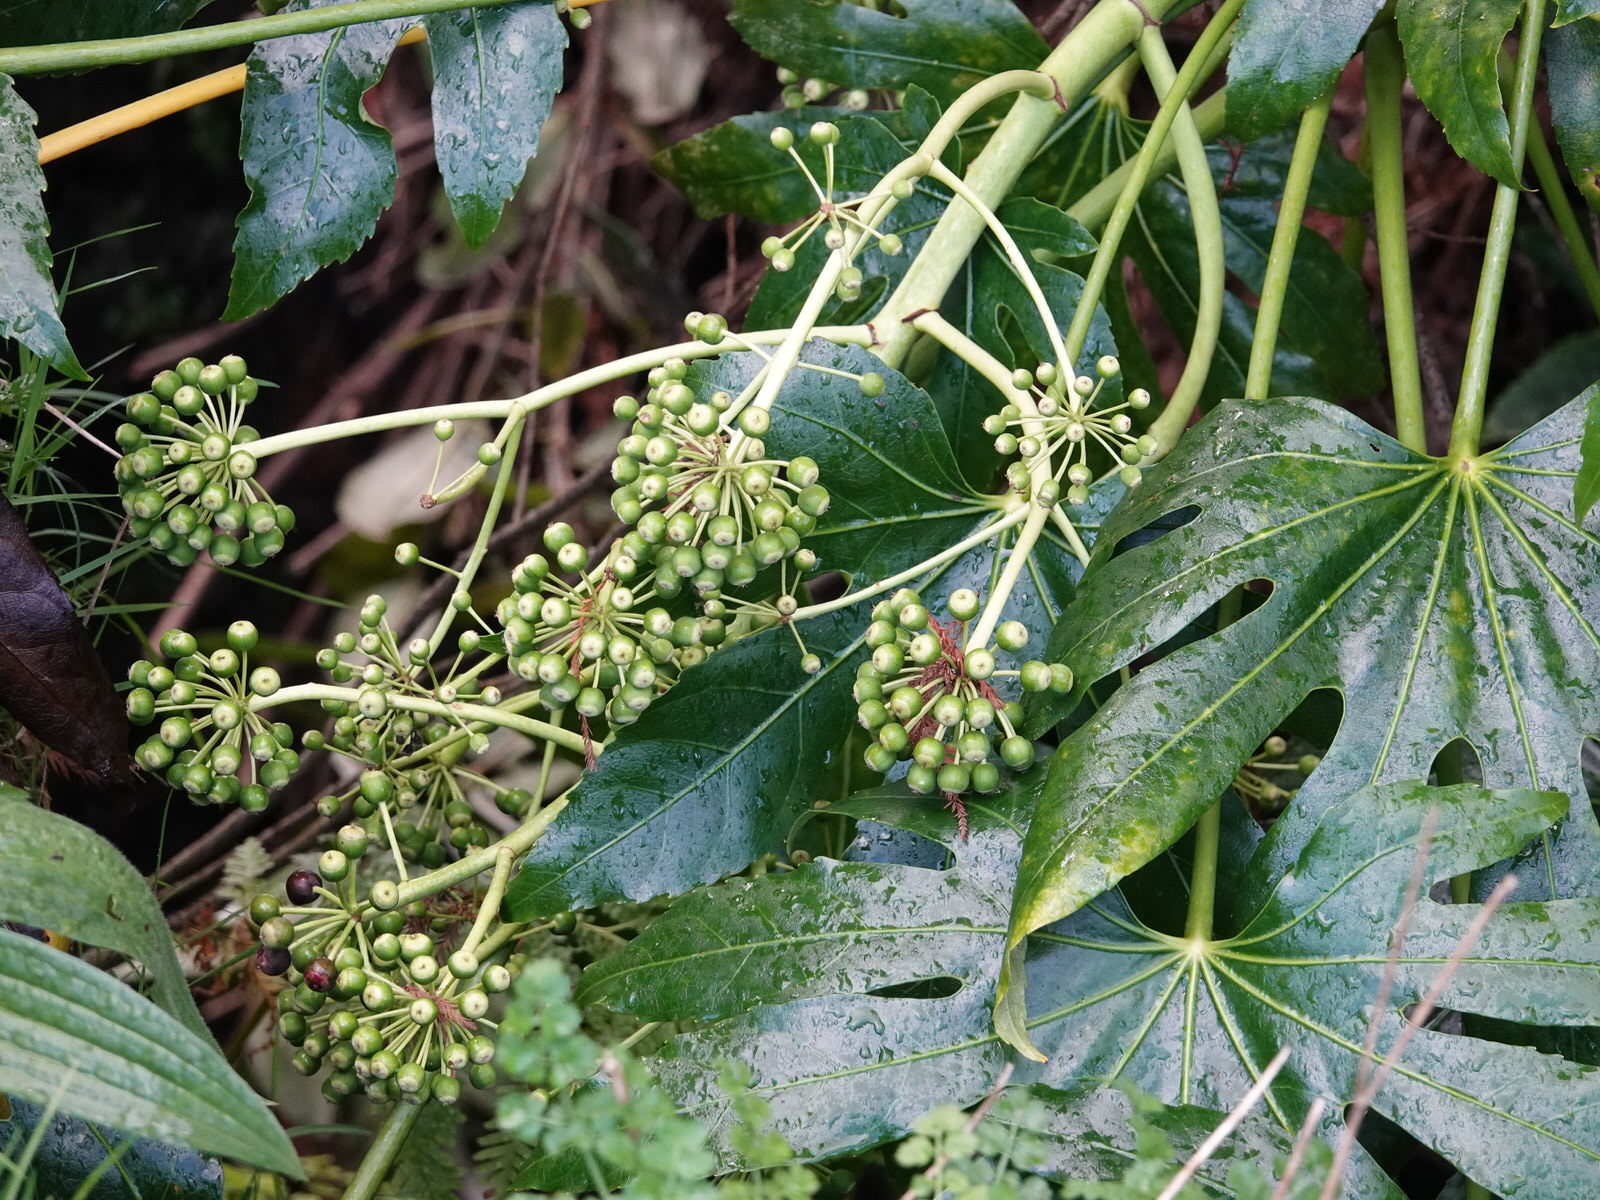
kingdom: Plantae
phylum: Tracheophyta
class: Magnoliopsida
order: Apiales
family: Araliaceae
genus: Fatsia
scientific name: Fatsia japonica
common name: Fatsia
